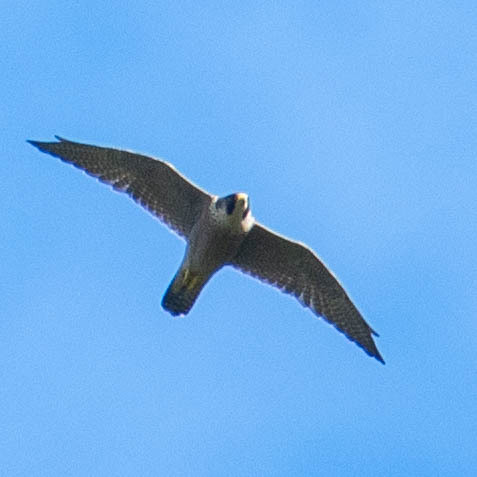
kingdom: Animalia
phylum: Chordata
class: Aves
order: Falconiformes
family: Falconidae
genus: Falco
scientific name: Falco peregrinus
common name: Peregrine falcon
